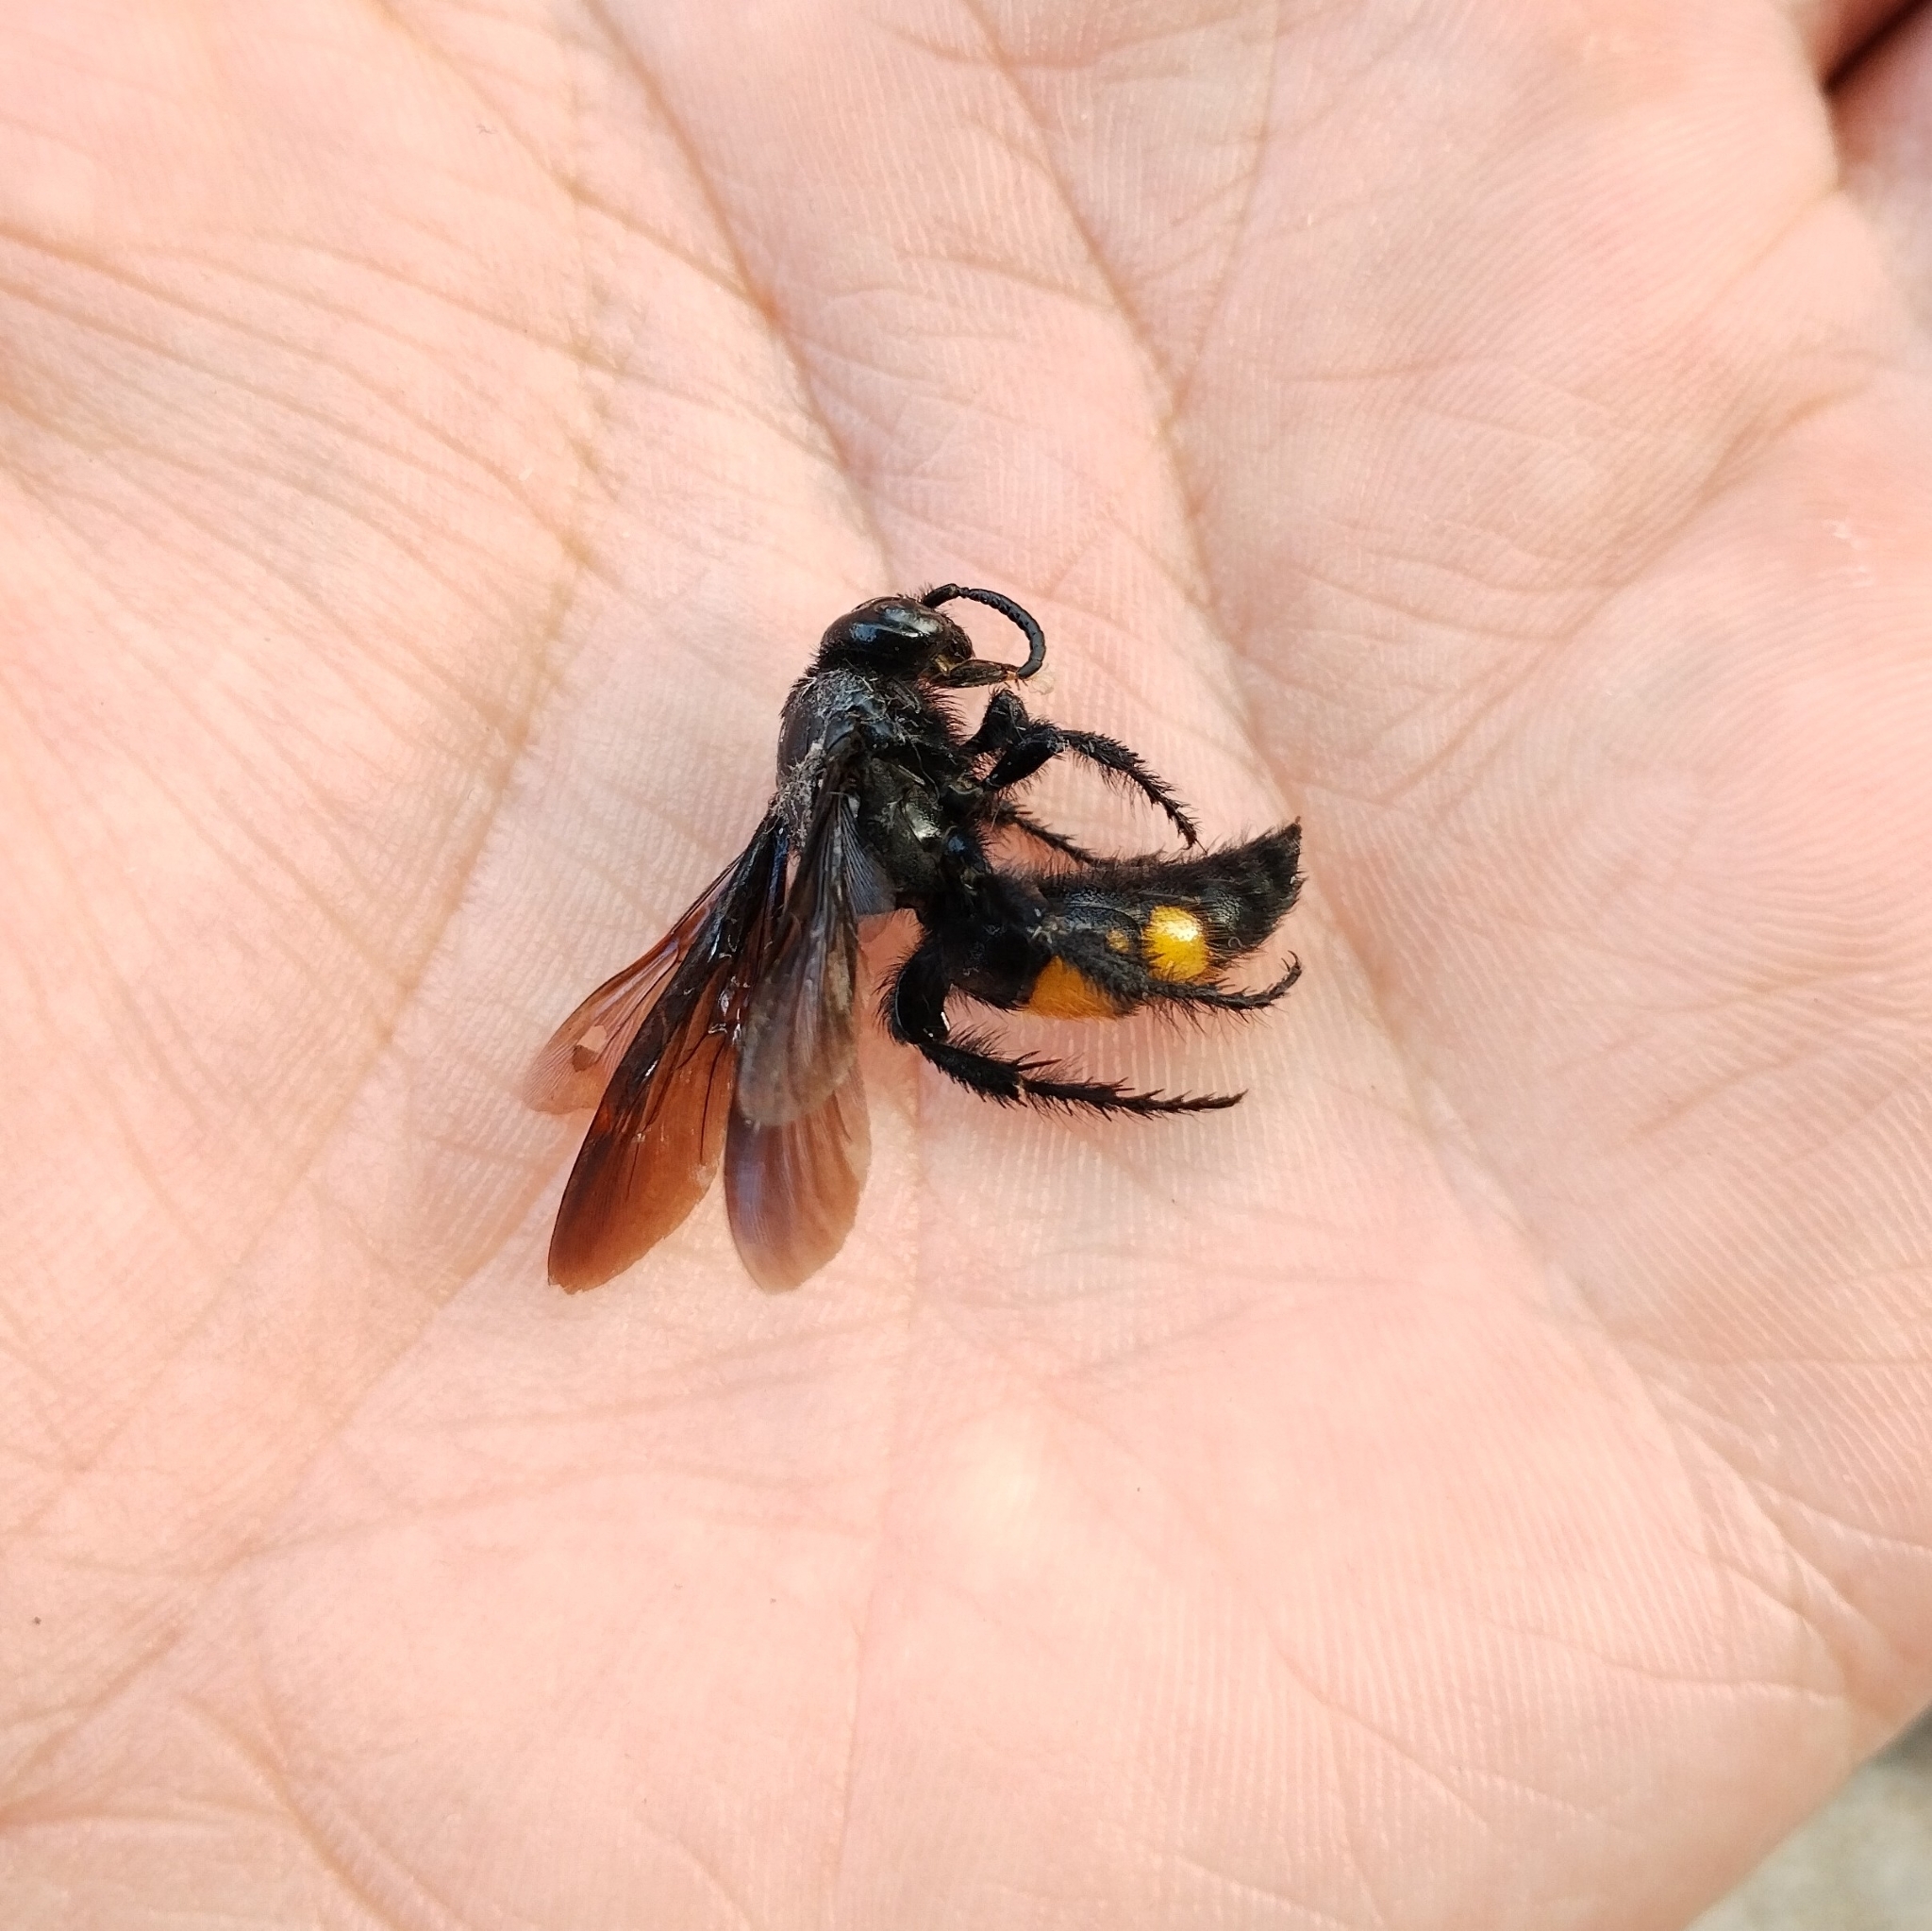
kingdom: Animalia
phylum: Arthropoda
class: Insecta
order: Hymenoptera
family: Scoliidae
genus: Scolia
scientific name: Scolia hirta
